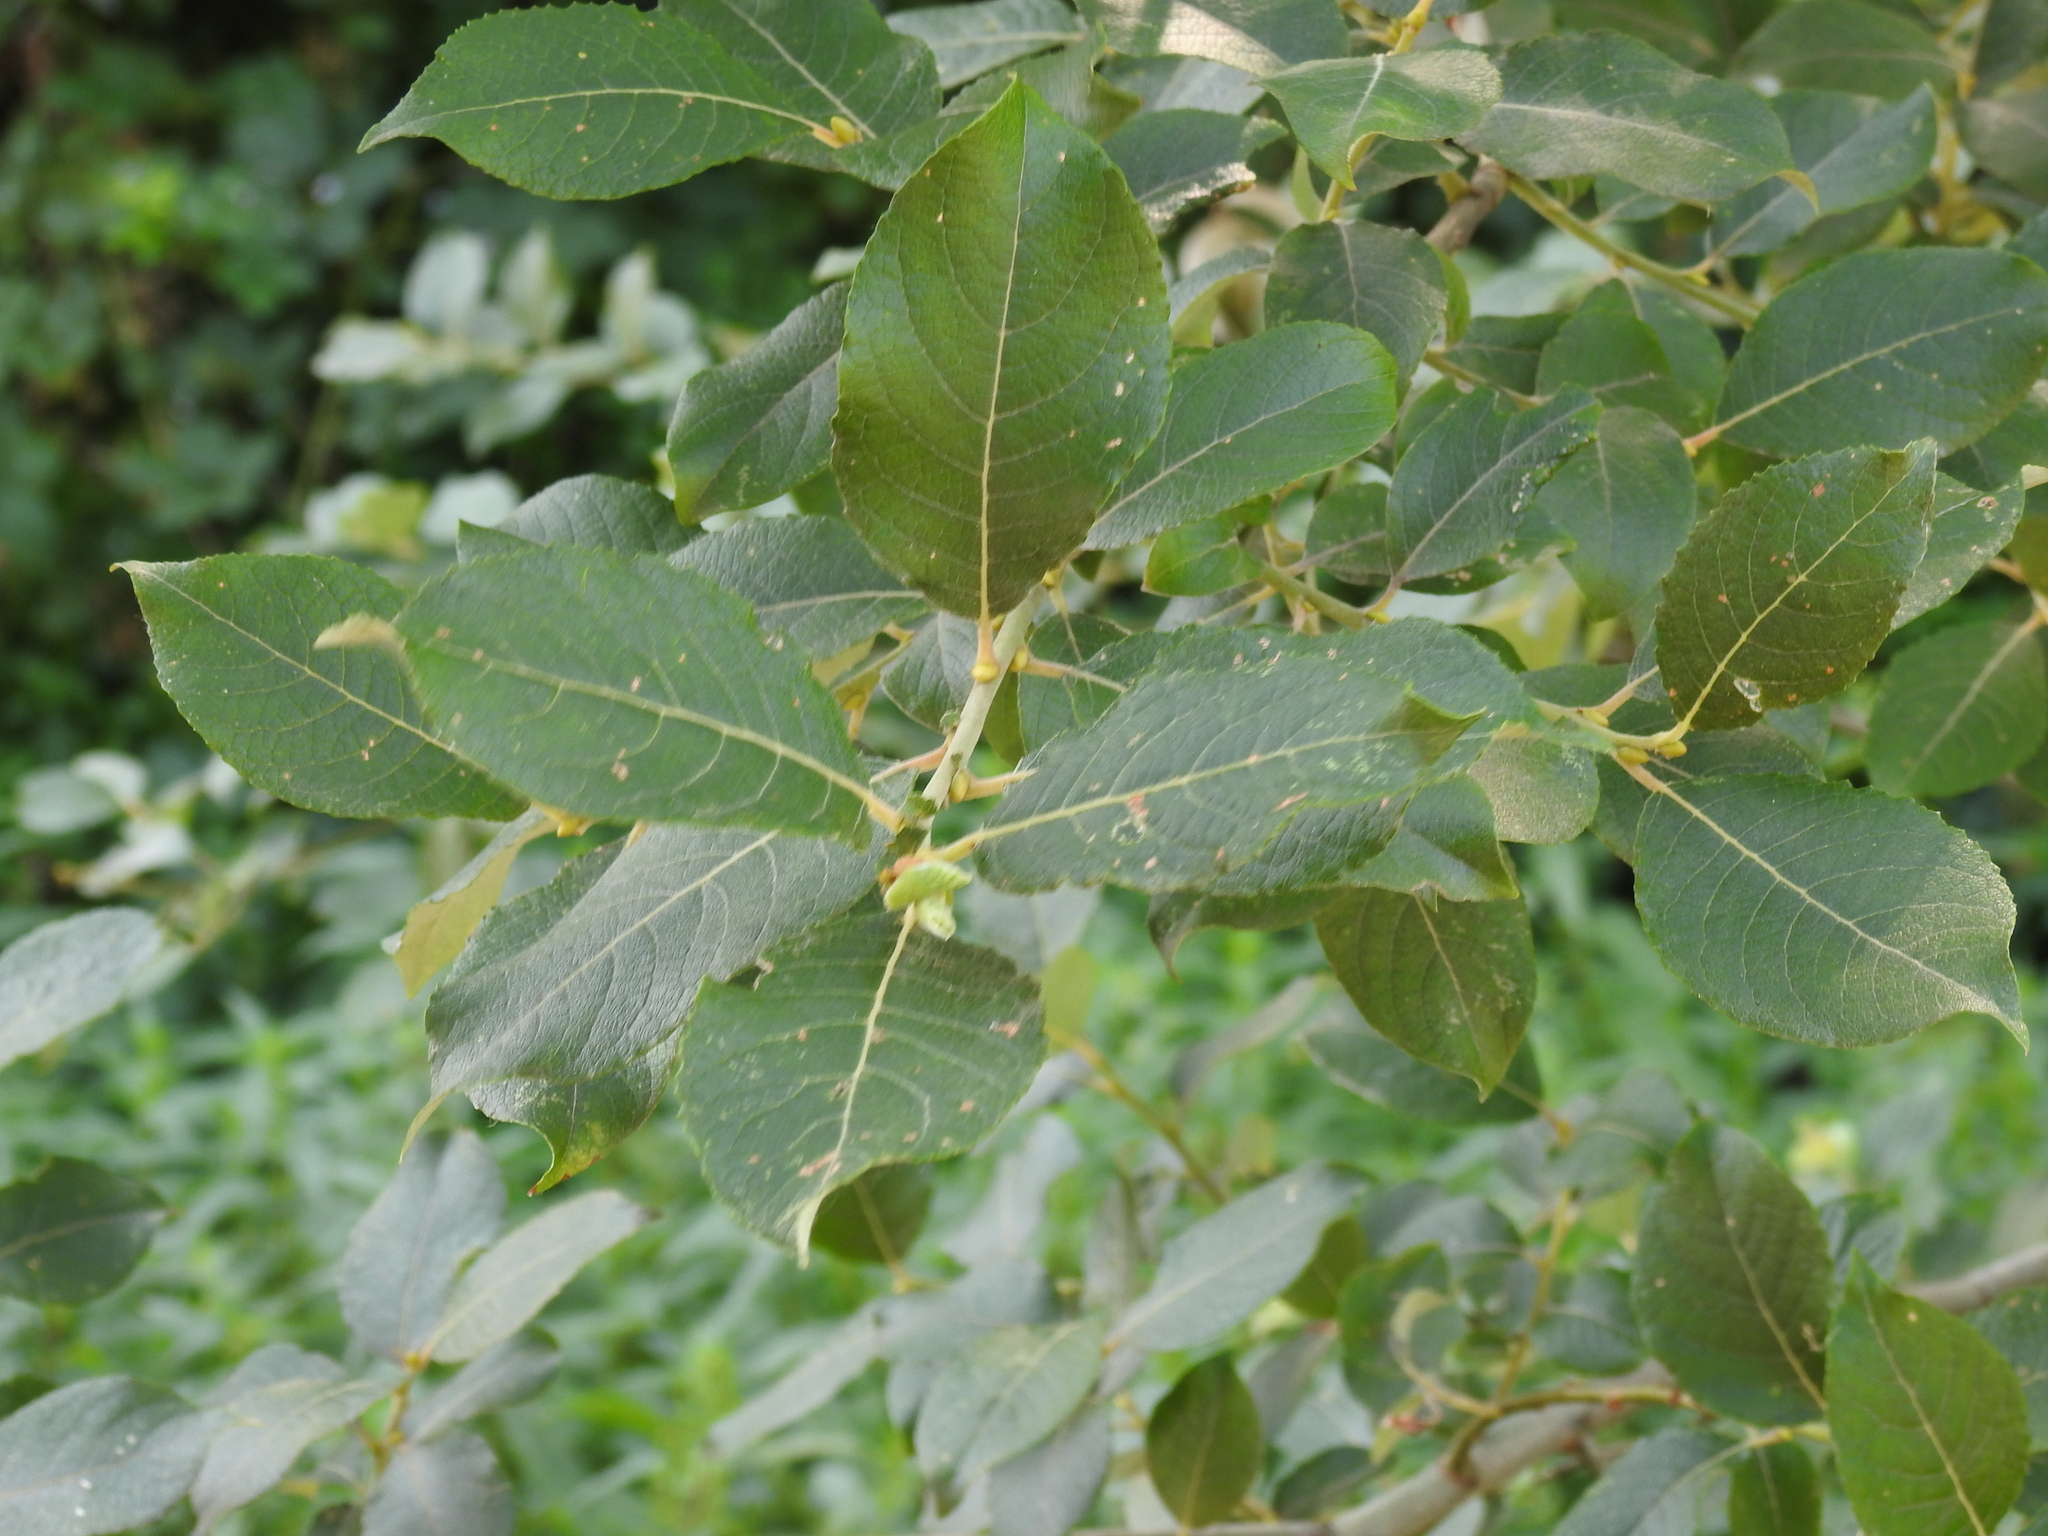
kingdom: Plantae
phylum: Tracheophyta
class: Magnoliopsida
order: Malpighiales
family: Salicaceae
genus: Salix
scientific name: Salix caprea
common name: Goat willow
